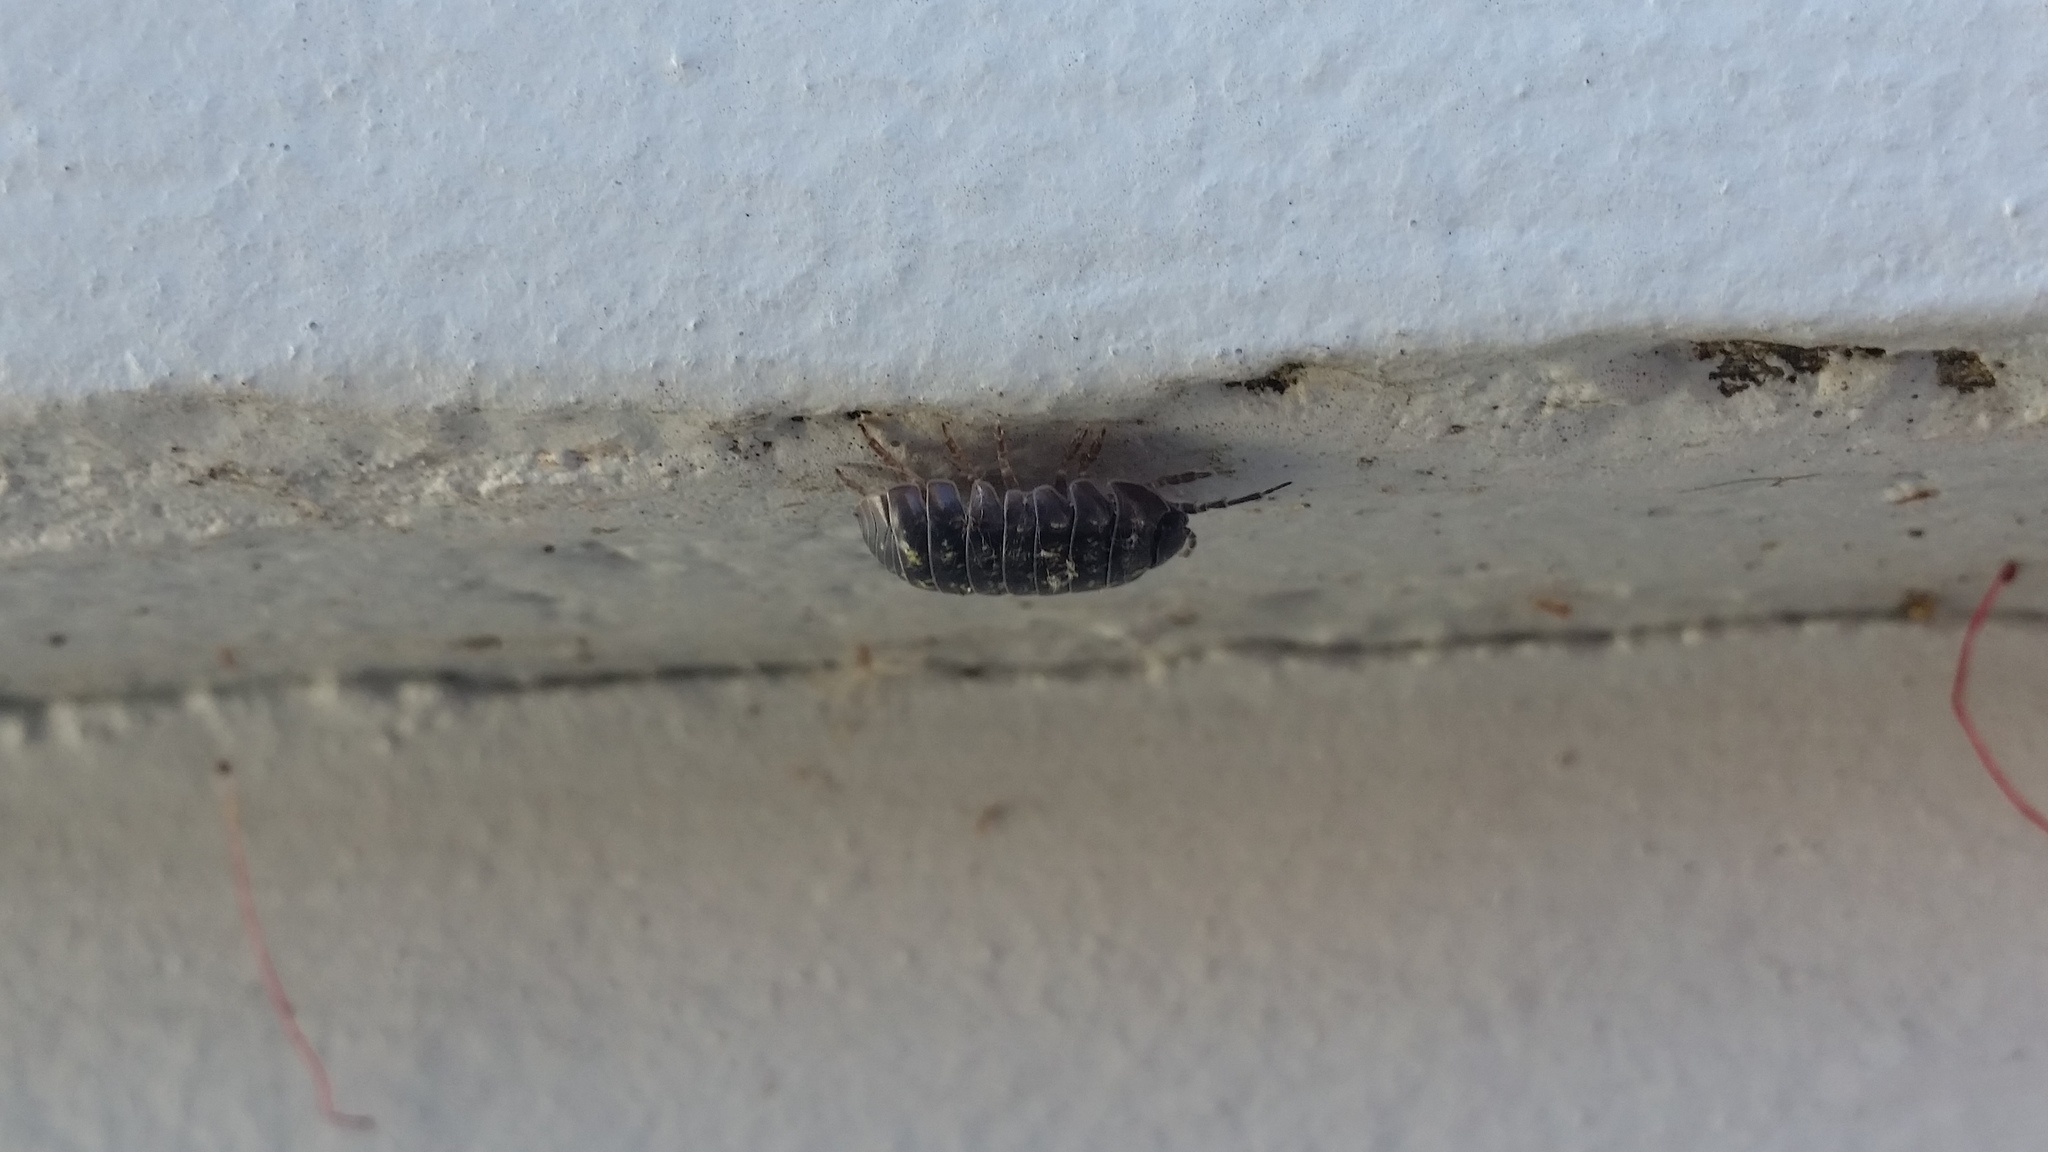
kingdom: Animalia
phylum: Arthropoda
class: Malacostraca
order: Isopoda
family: Armadillidiidae
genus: Armadillidium
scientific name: Armadillidium vulgare
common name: Common pill woodlouse
